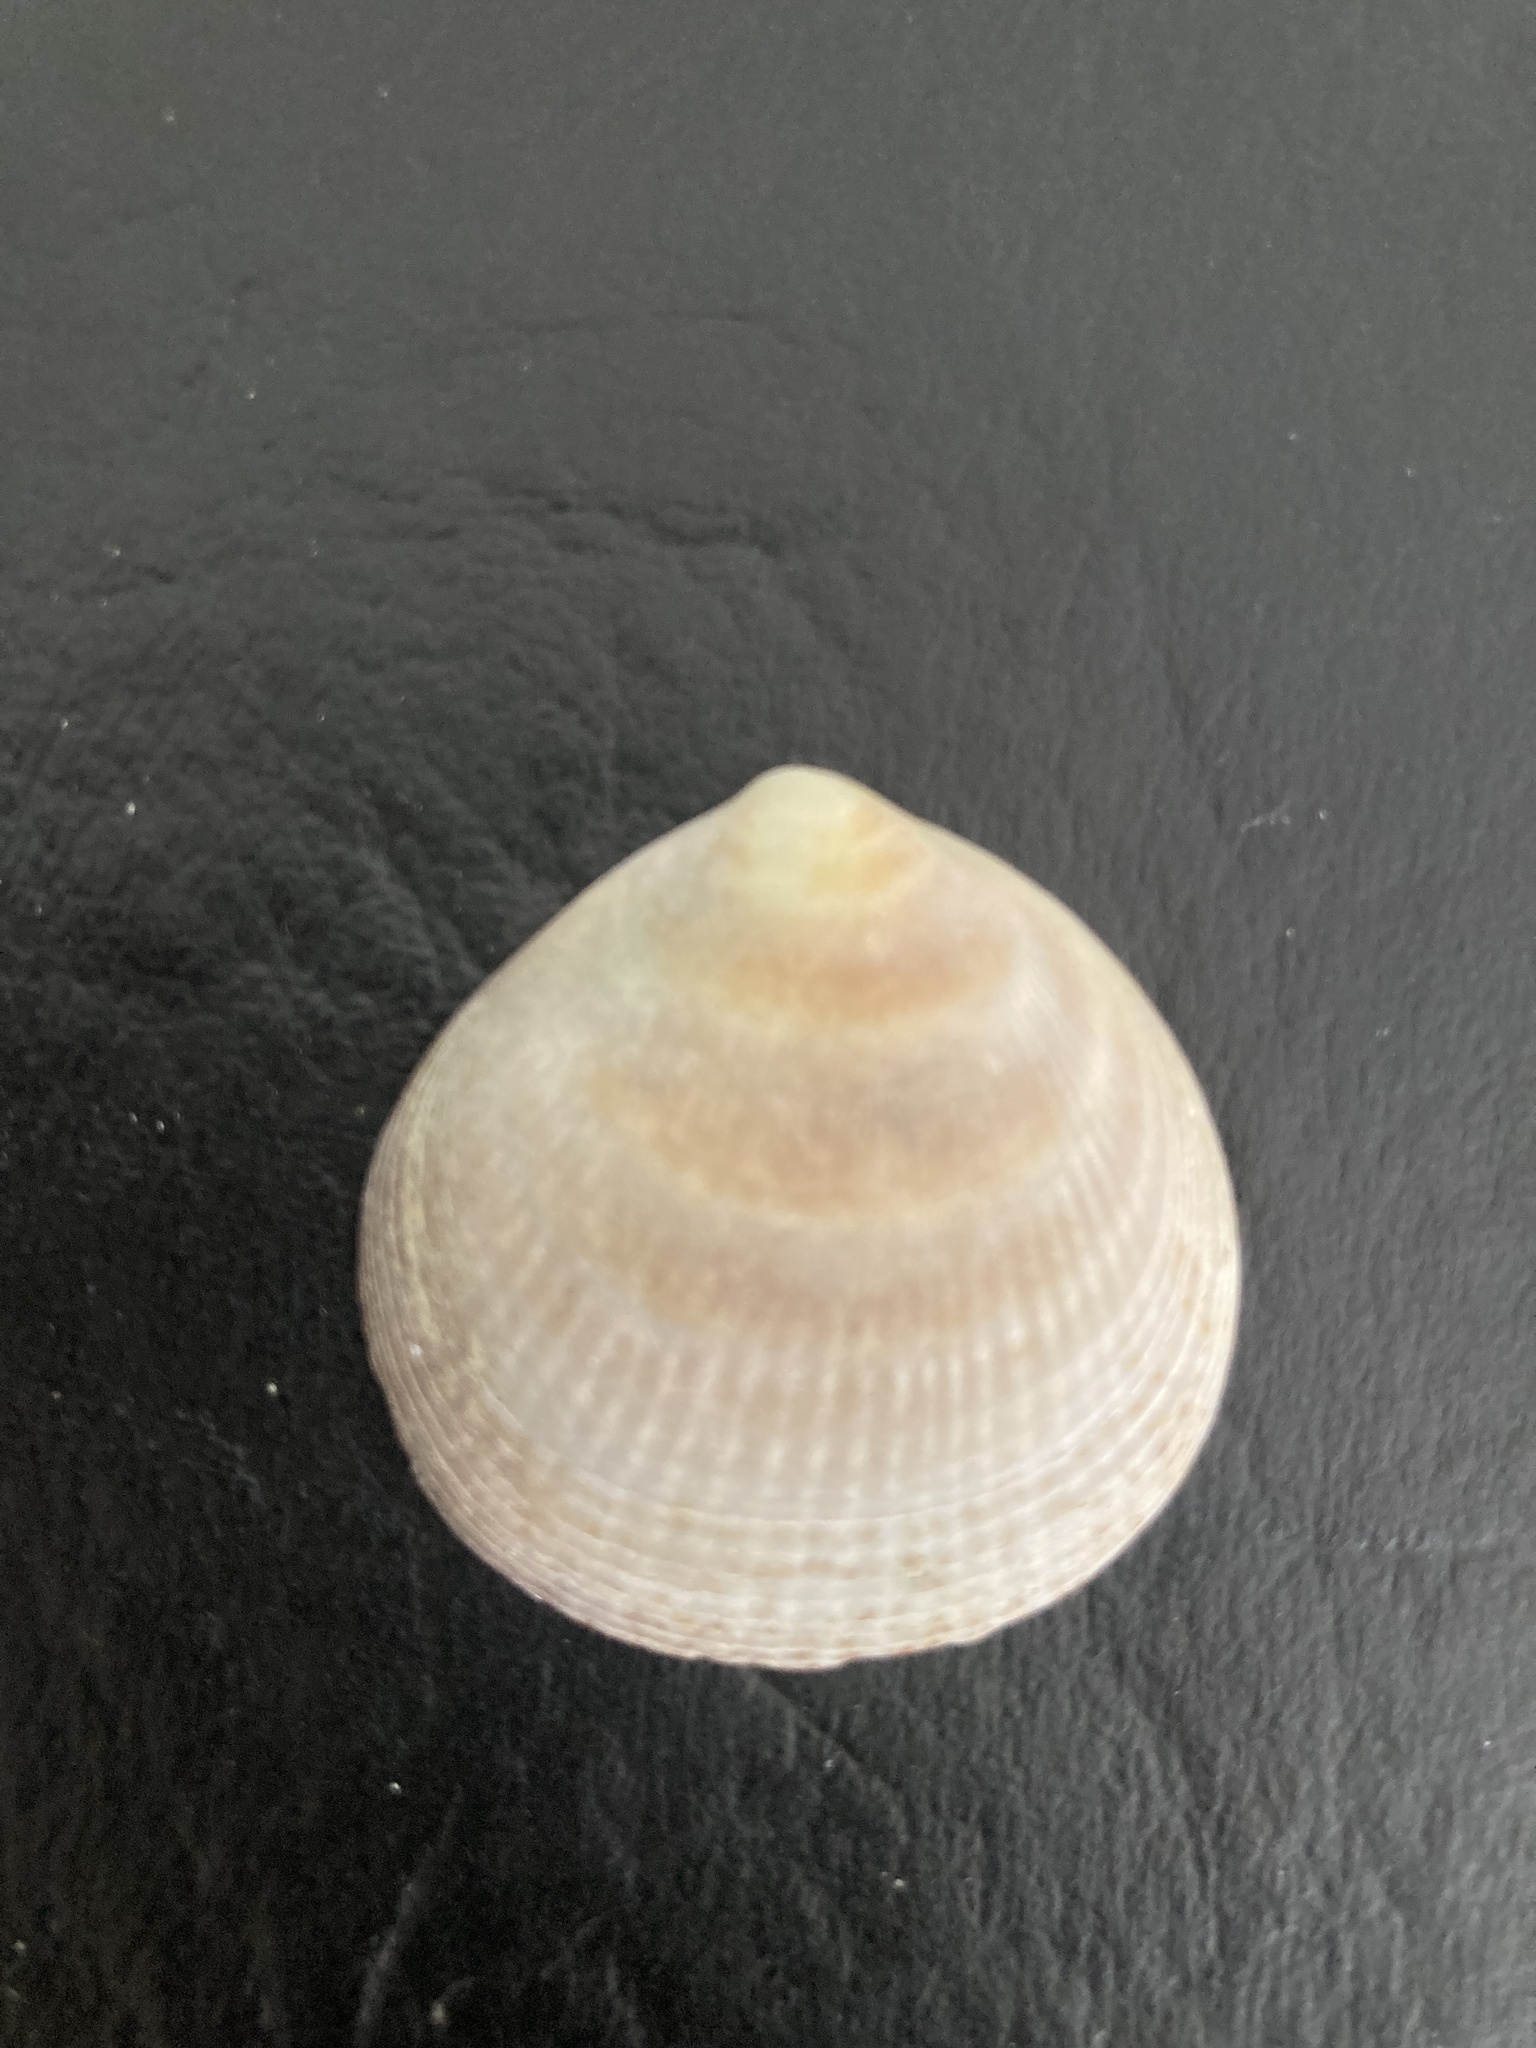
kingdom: Animalia
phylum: Mollusca
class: Bivalvia
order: Arcida
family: Glycymerididae
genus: Glycymeris
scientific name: Glycymeris longior
